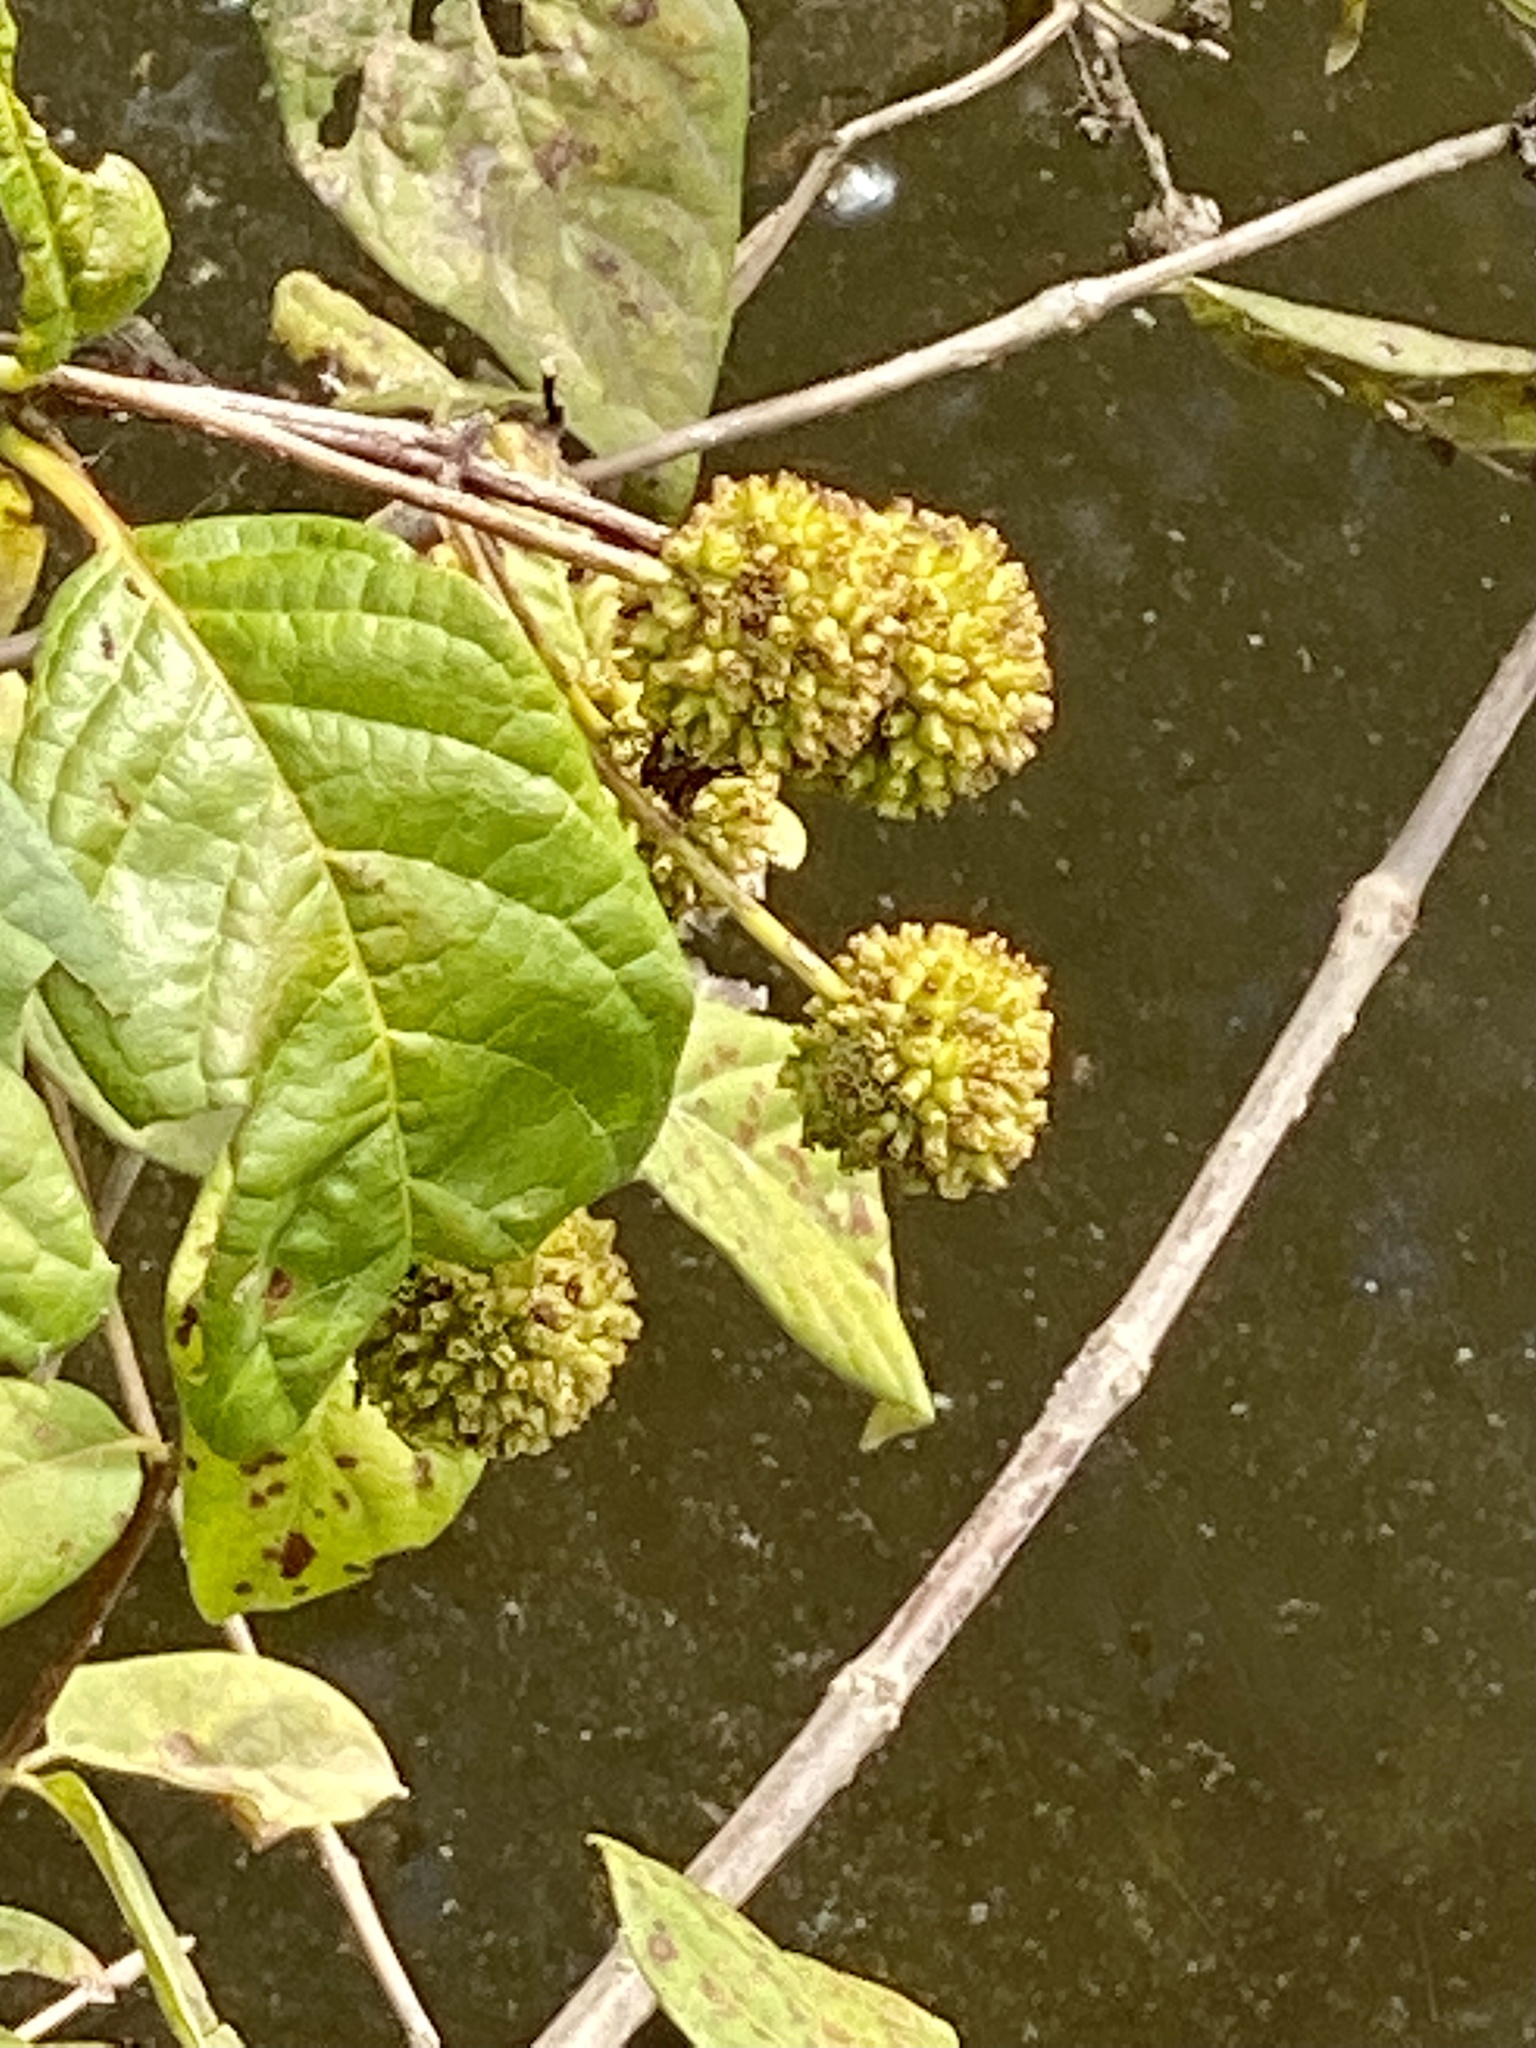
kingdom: Plantae
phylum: Tracheophyta
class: Magnoliopsida
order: Gentianales
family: Rubiaceae
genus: Cephalanthus
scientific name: Cephalanthus occidentalis
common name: Button-willow
